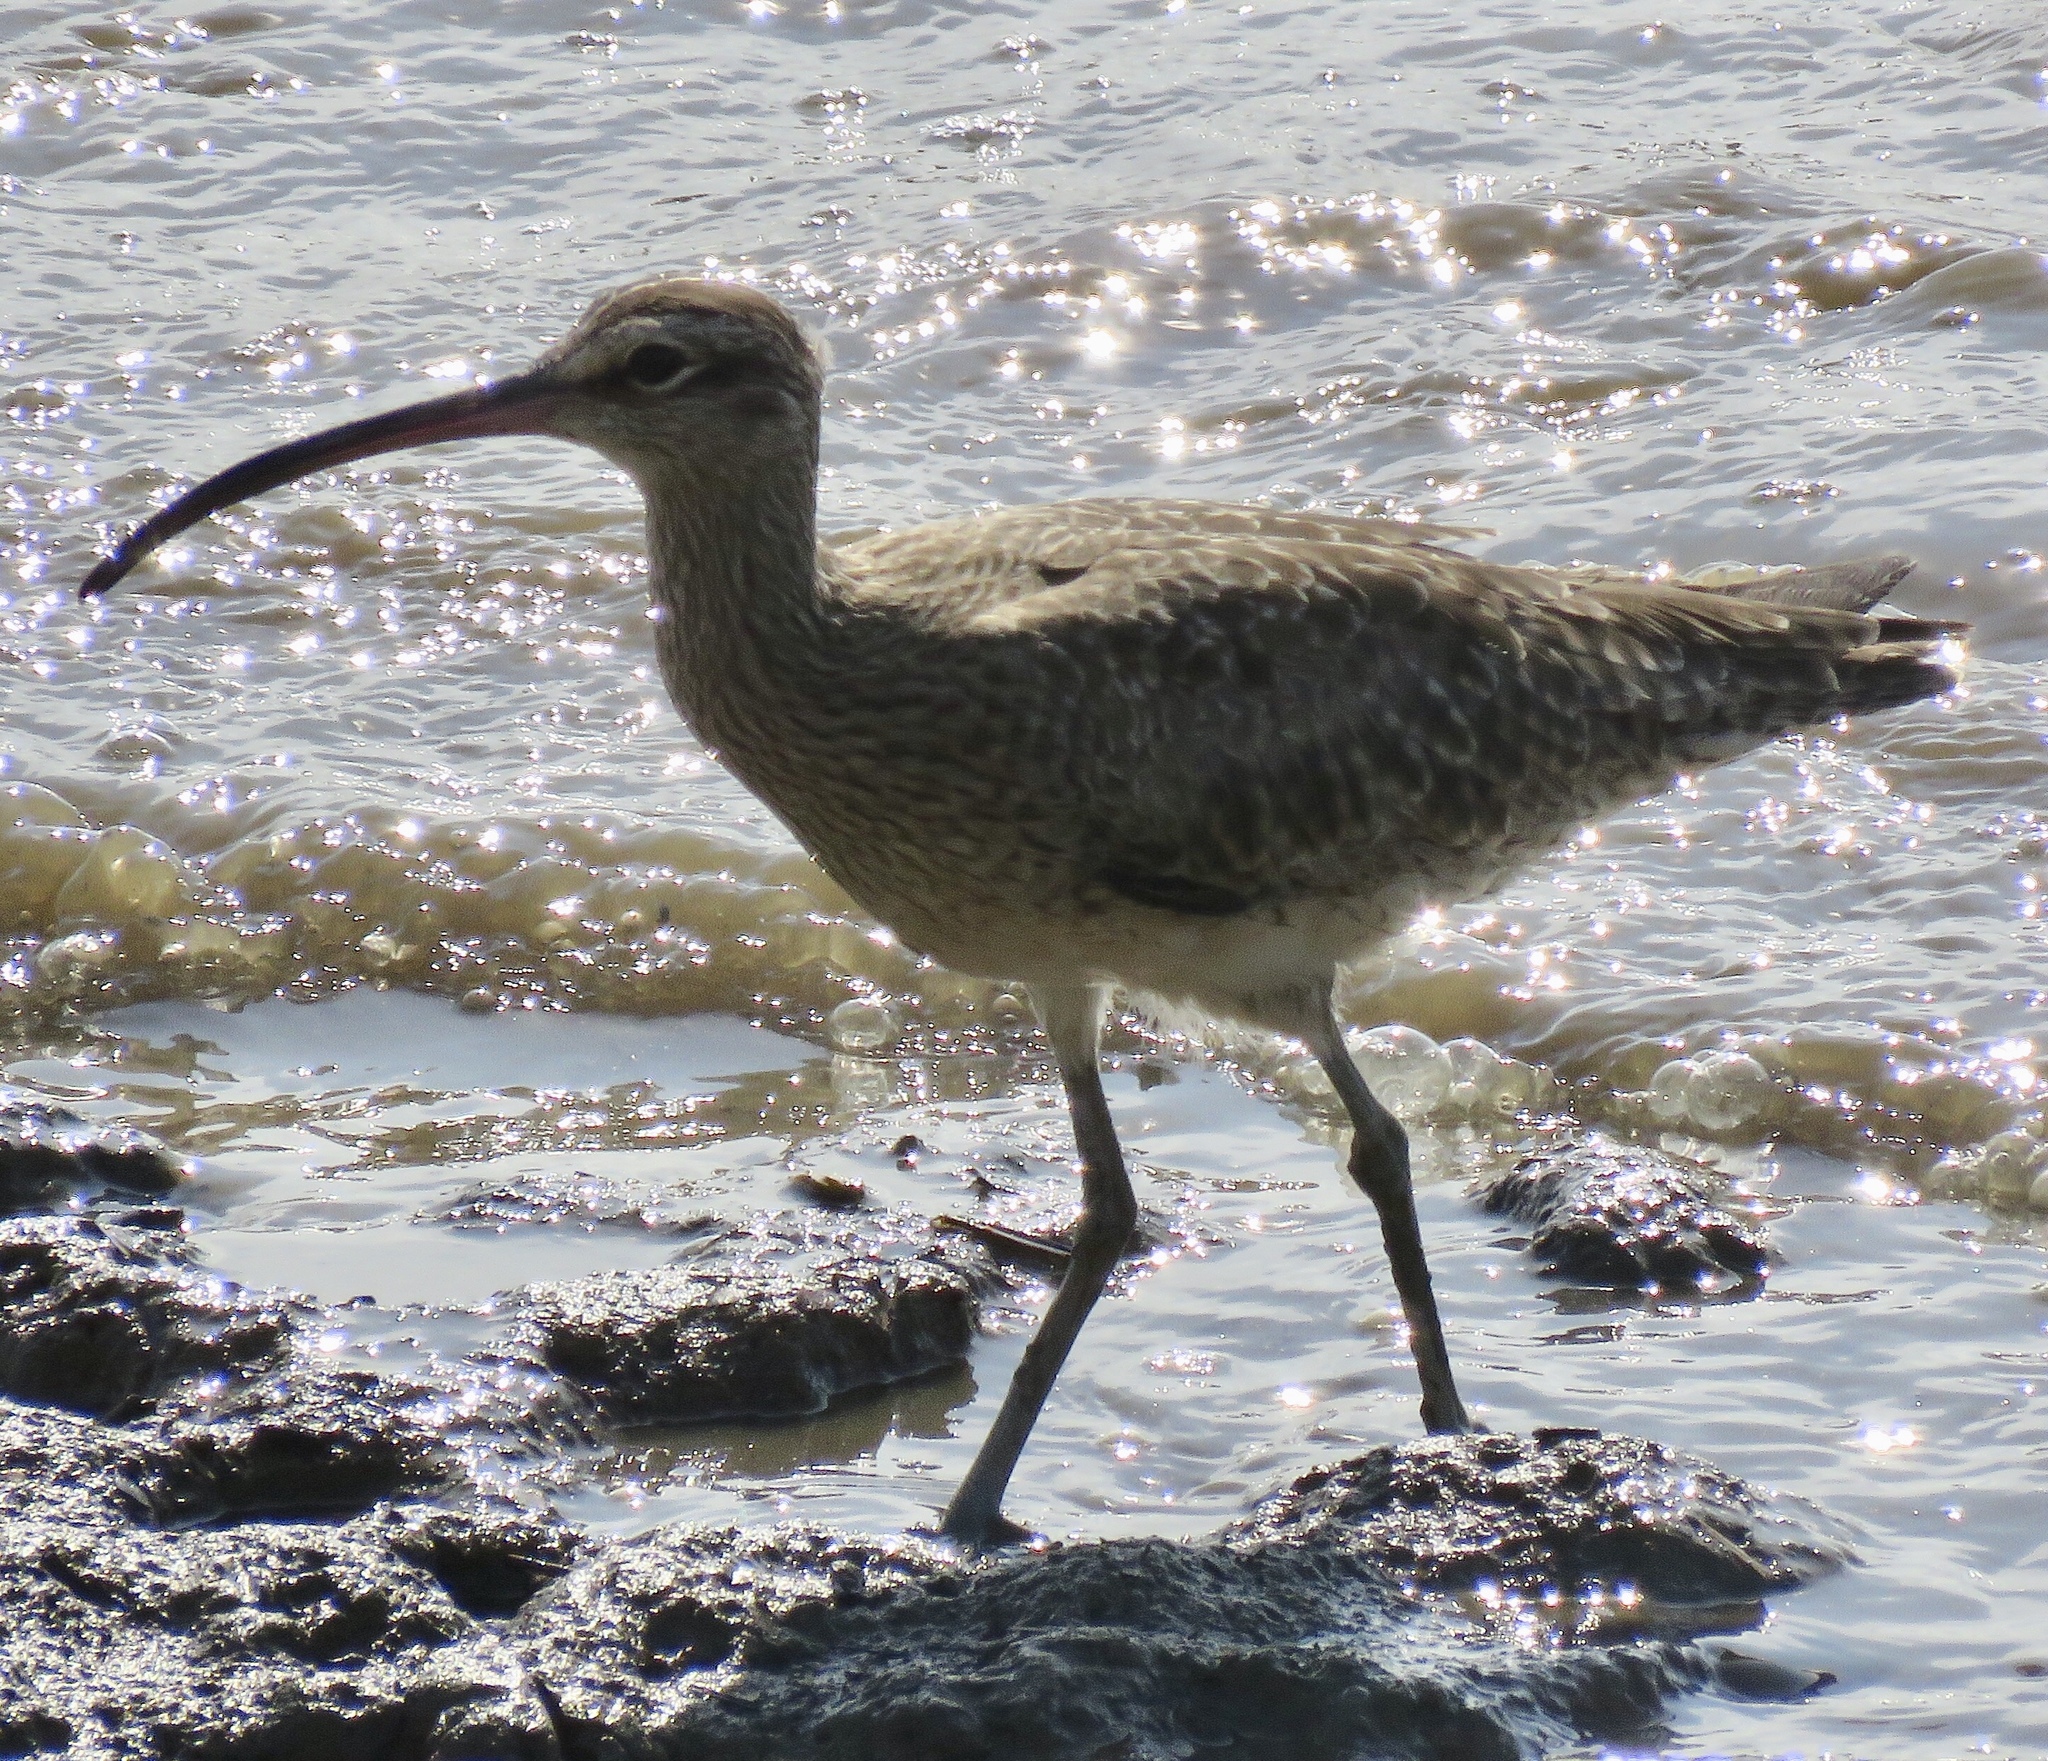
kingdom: Animalia
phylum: Chordata
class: Aves
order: Charadriiformes
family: Scolopacidae
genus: Numenius
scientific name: Numenius phaeopus
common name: Whimbrel
